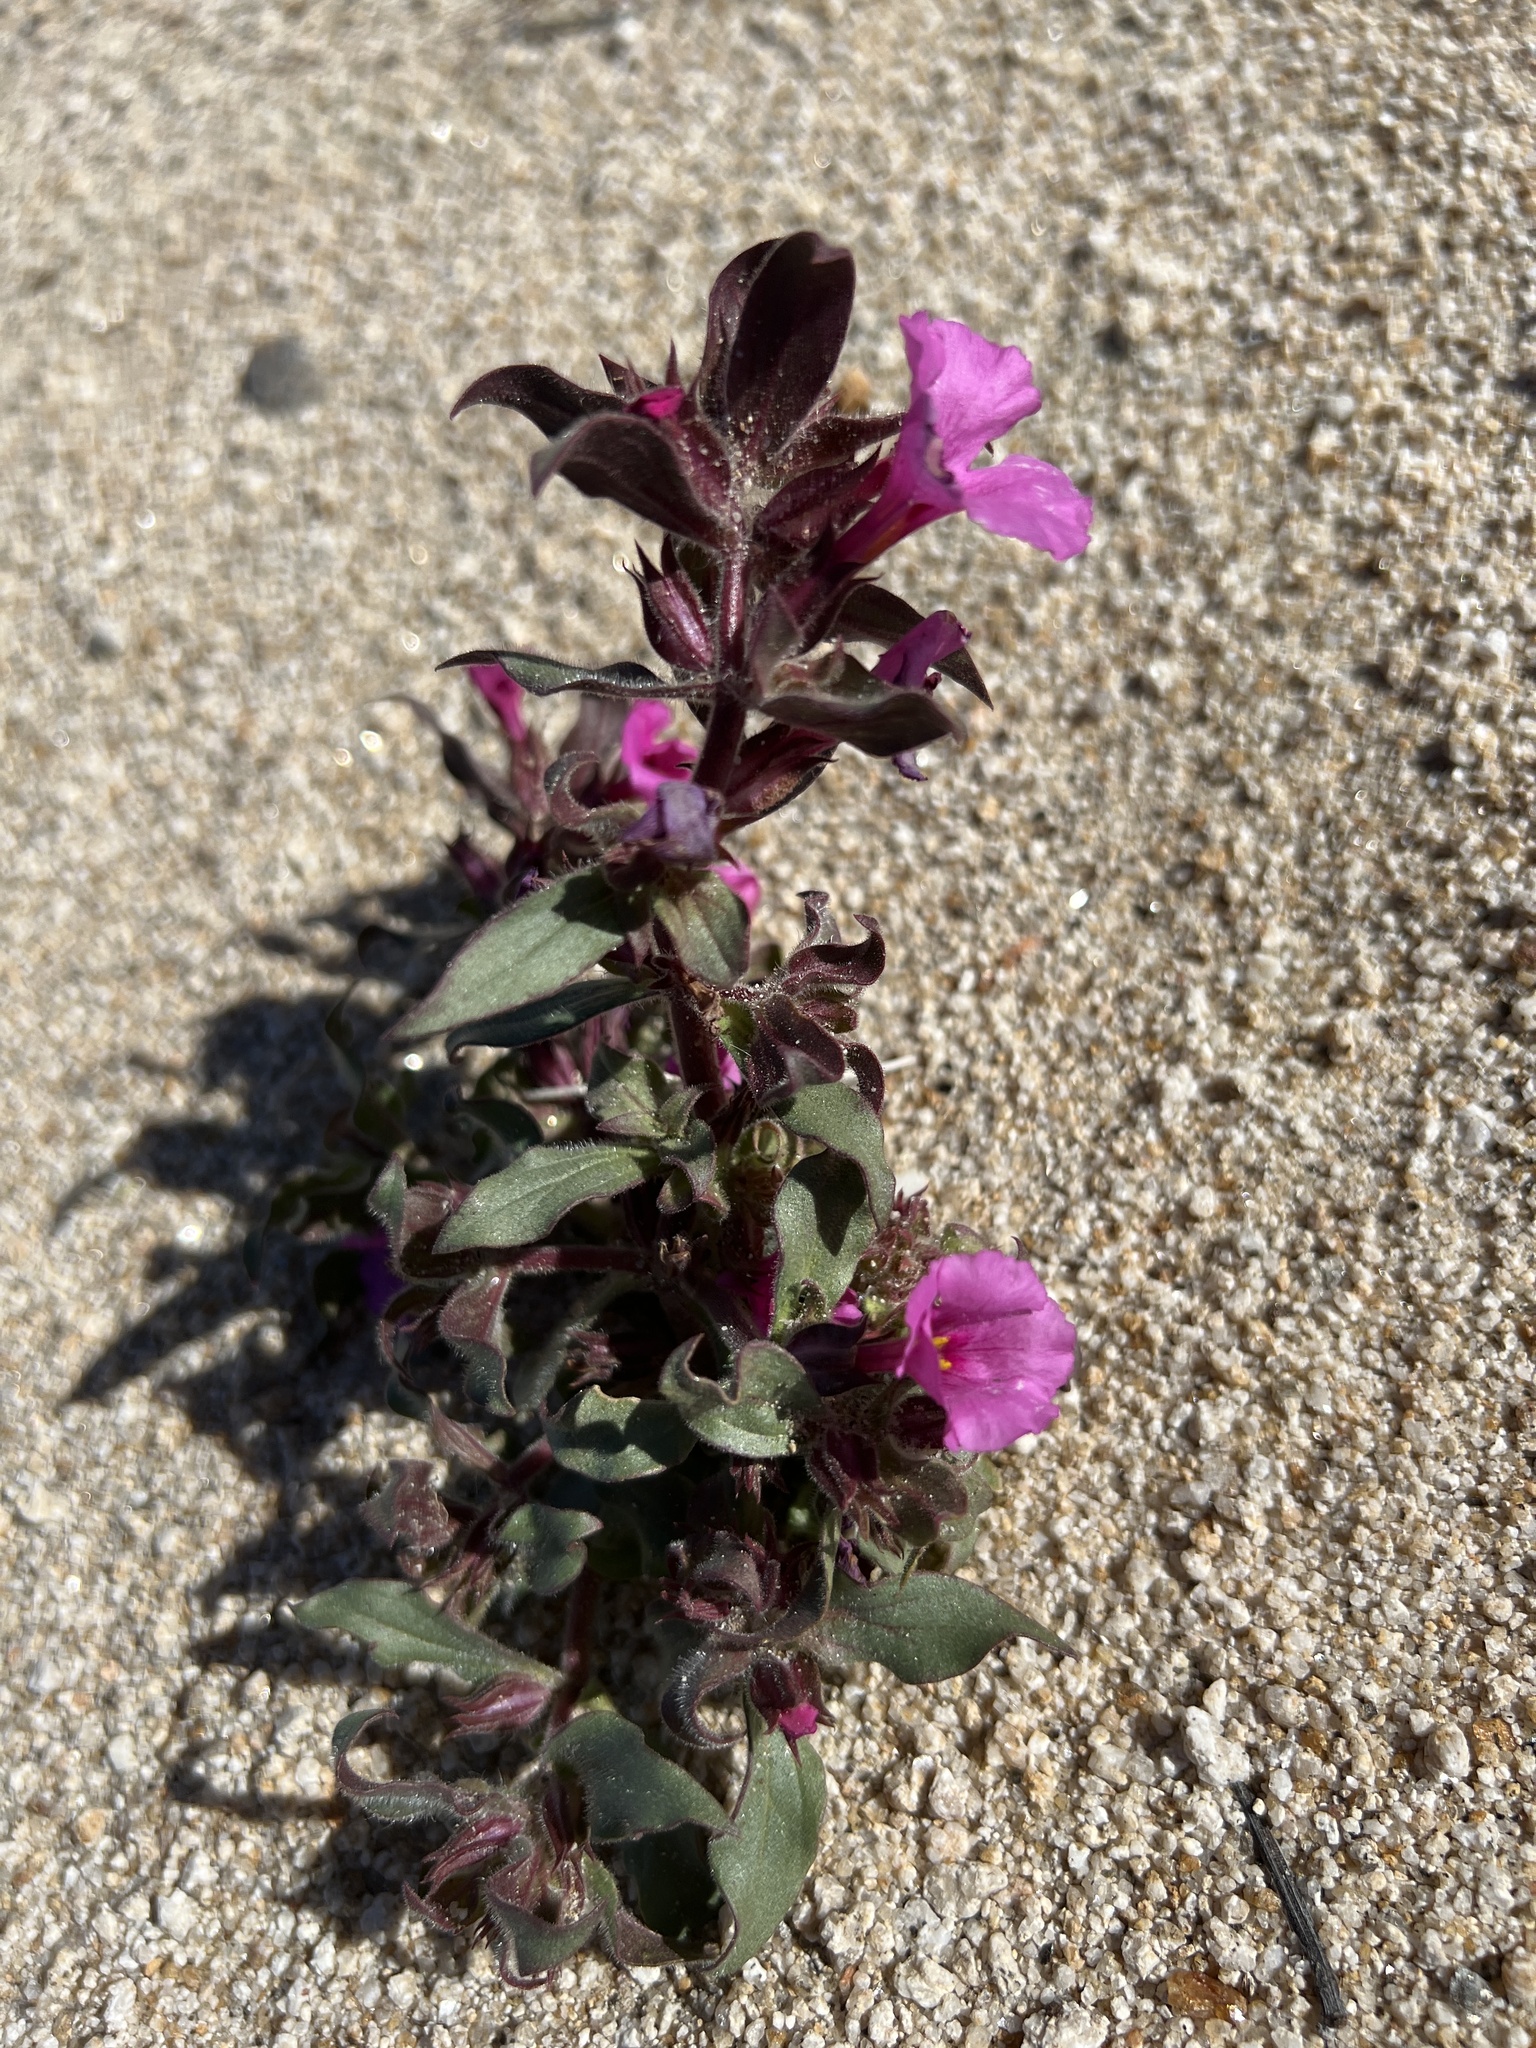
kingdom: Plantae
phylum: Tracheophyta
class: Magnoliopsida
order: Lamiales
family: Phrymaceae
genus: Diplacus
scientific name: Diplacus bigelovii
